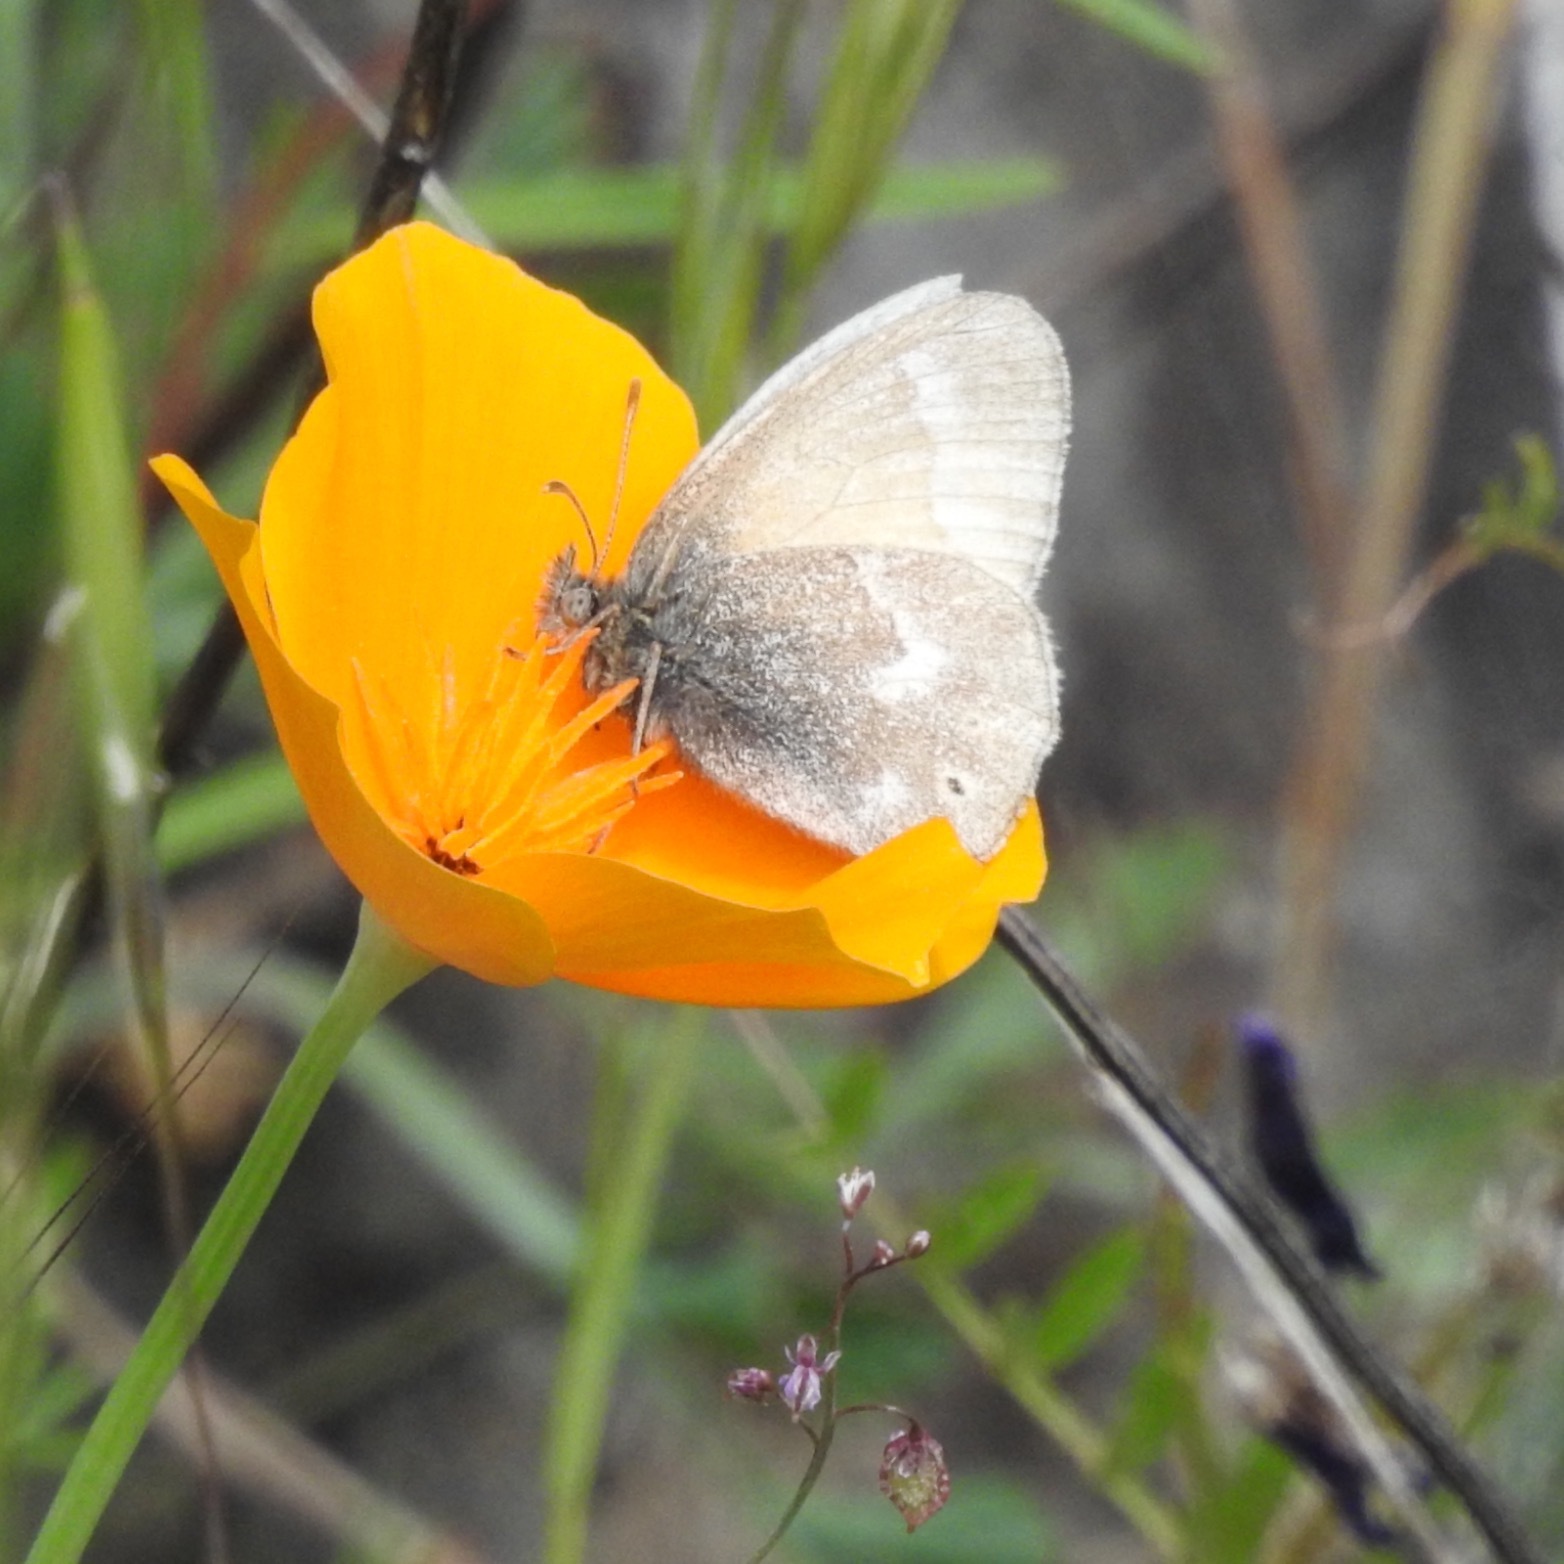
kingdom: Animalia
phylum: Arthropoda
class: Insecta
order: Lepidoptera
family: Nymphalidae
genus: Coenonympha
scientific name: Coenonympha california
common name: Common ringlet
